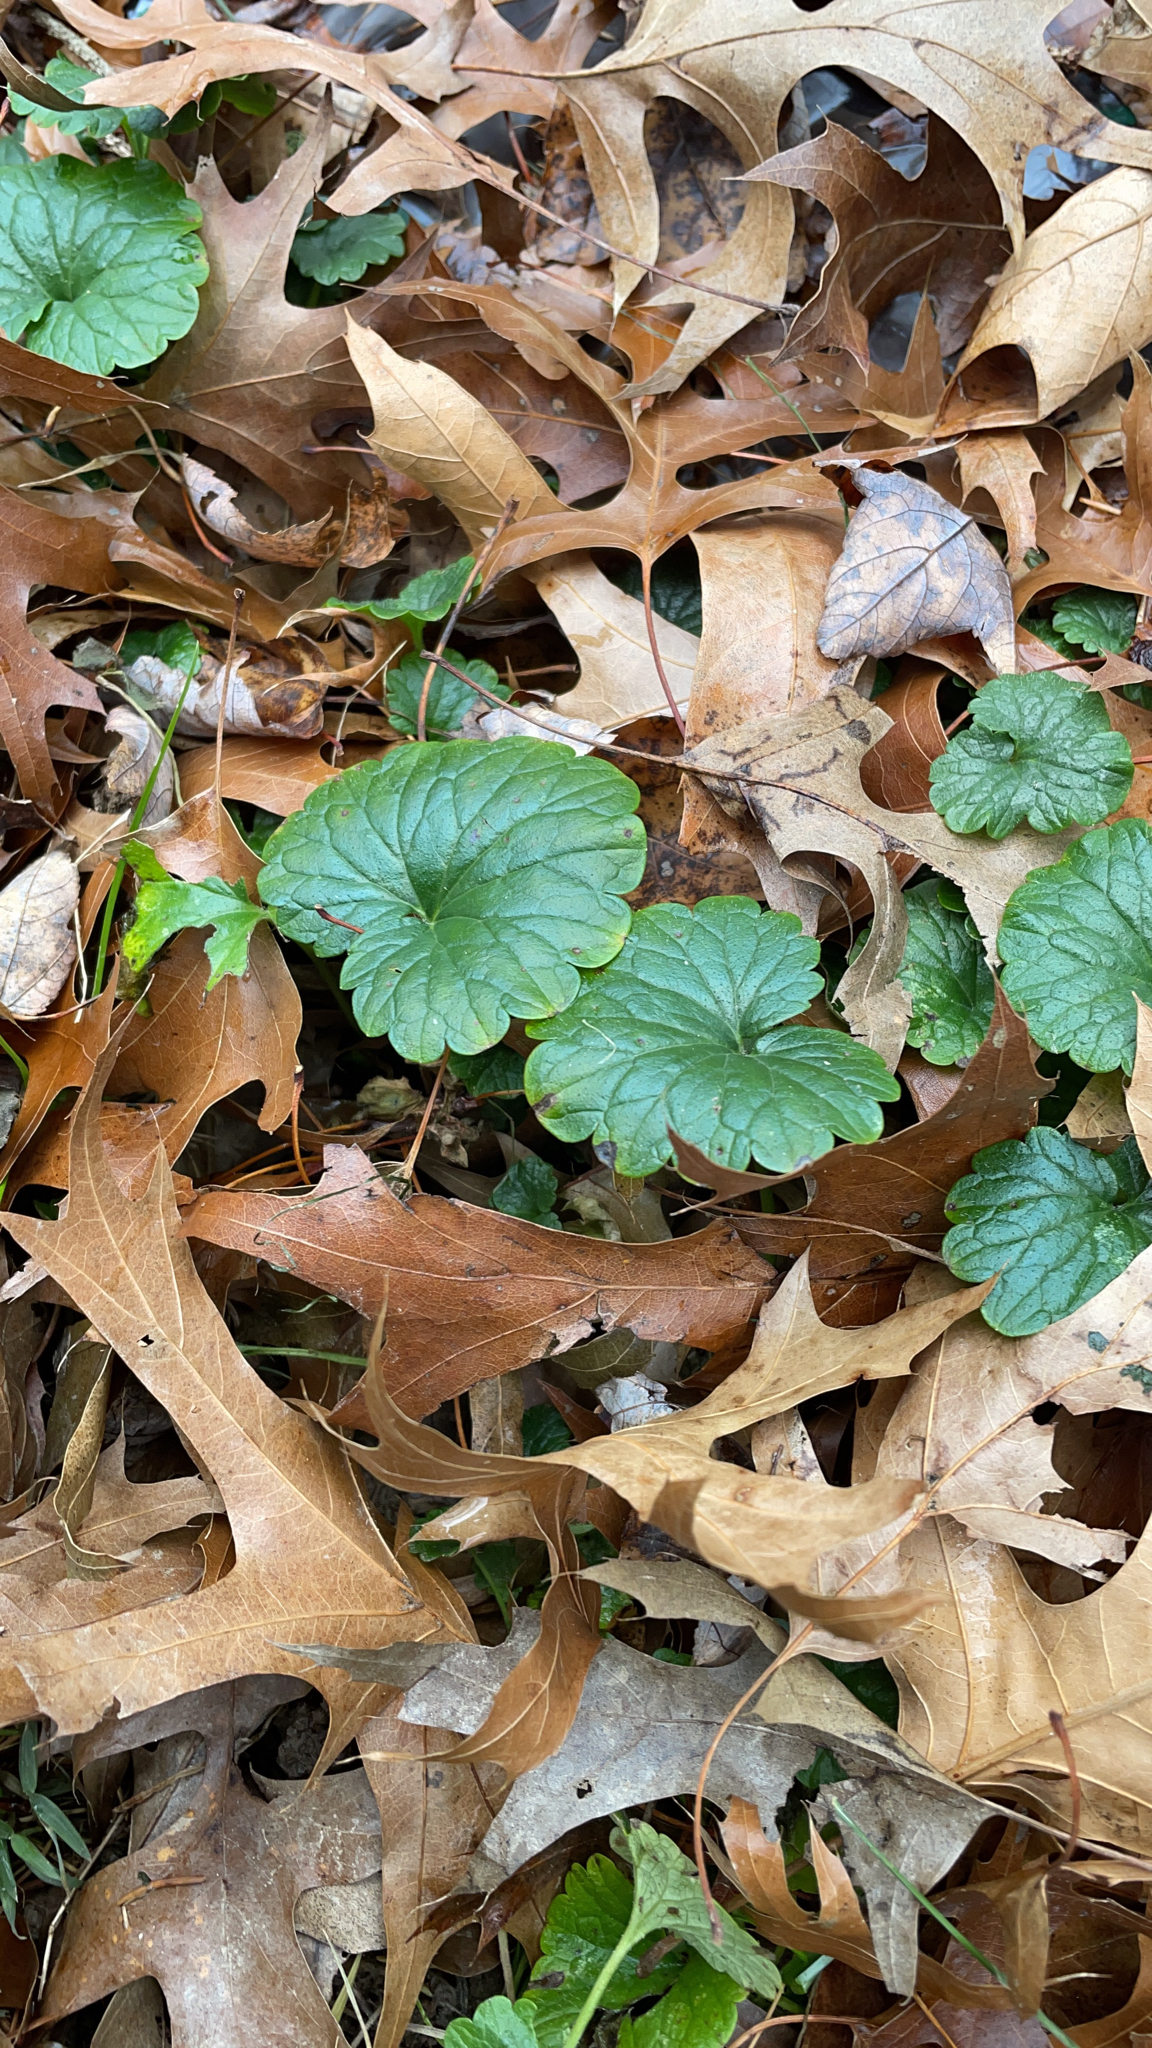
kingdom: Plantae
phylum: Tracheophyta
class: Magnoliopsida
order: Lamiales
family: Lamiaceae
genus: Glechoma
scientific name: Glechoma hederacea
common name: Ground ivy
